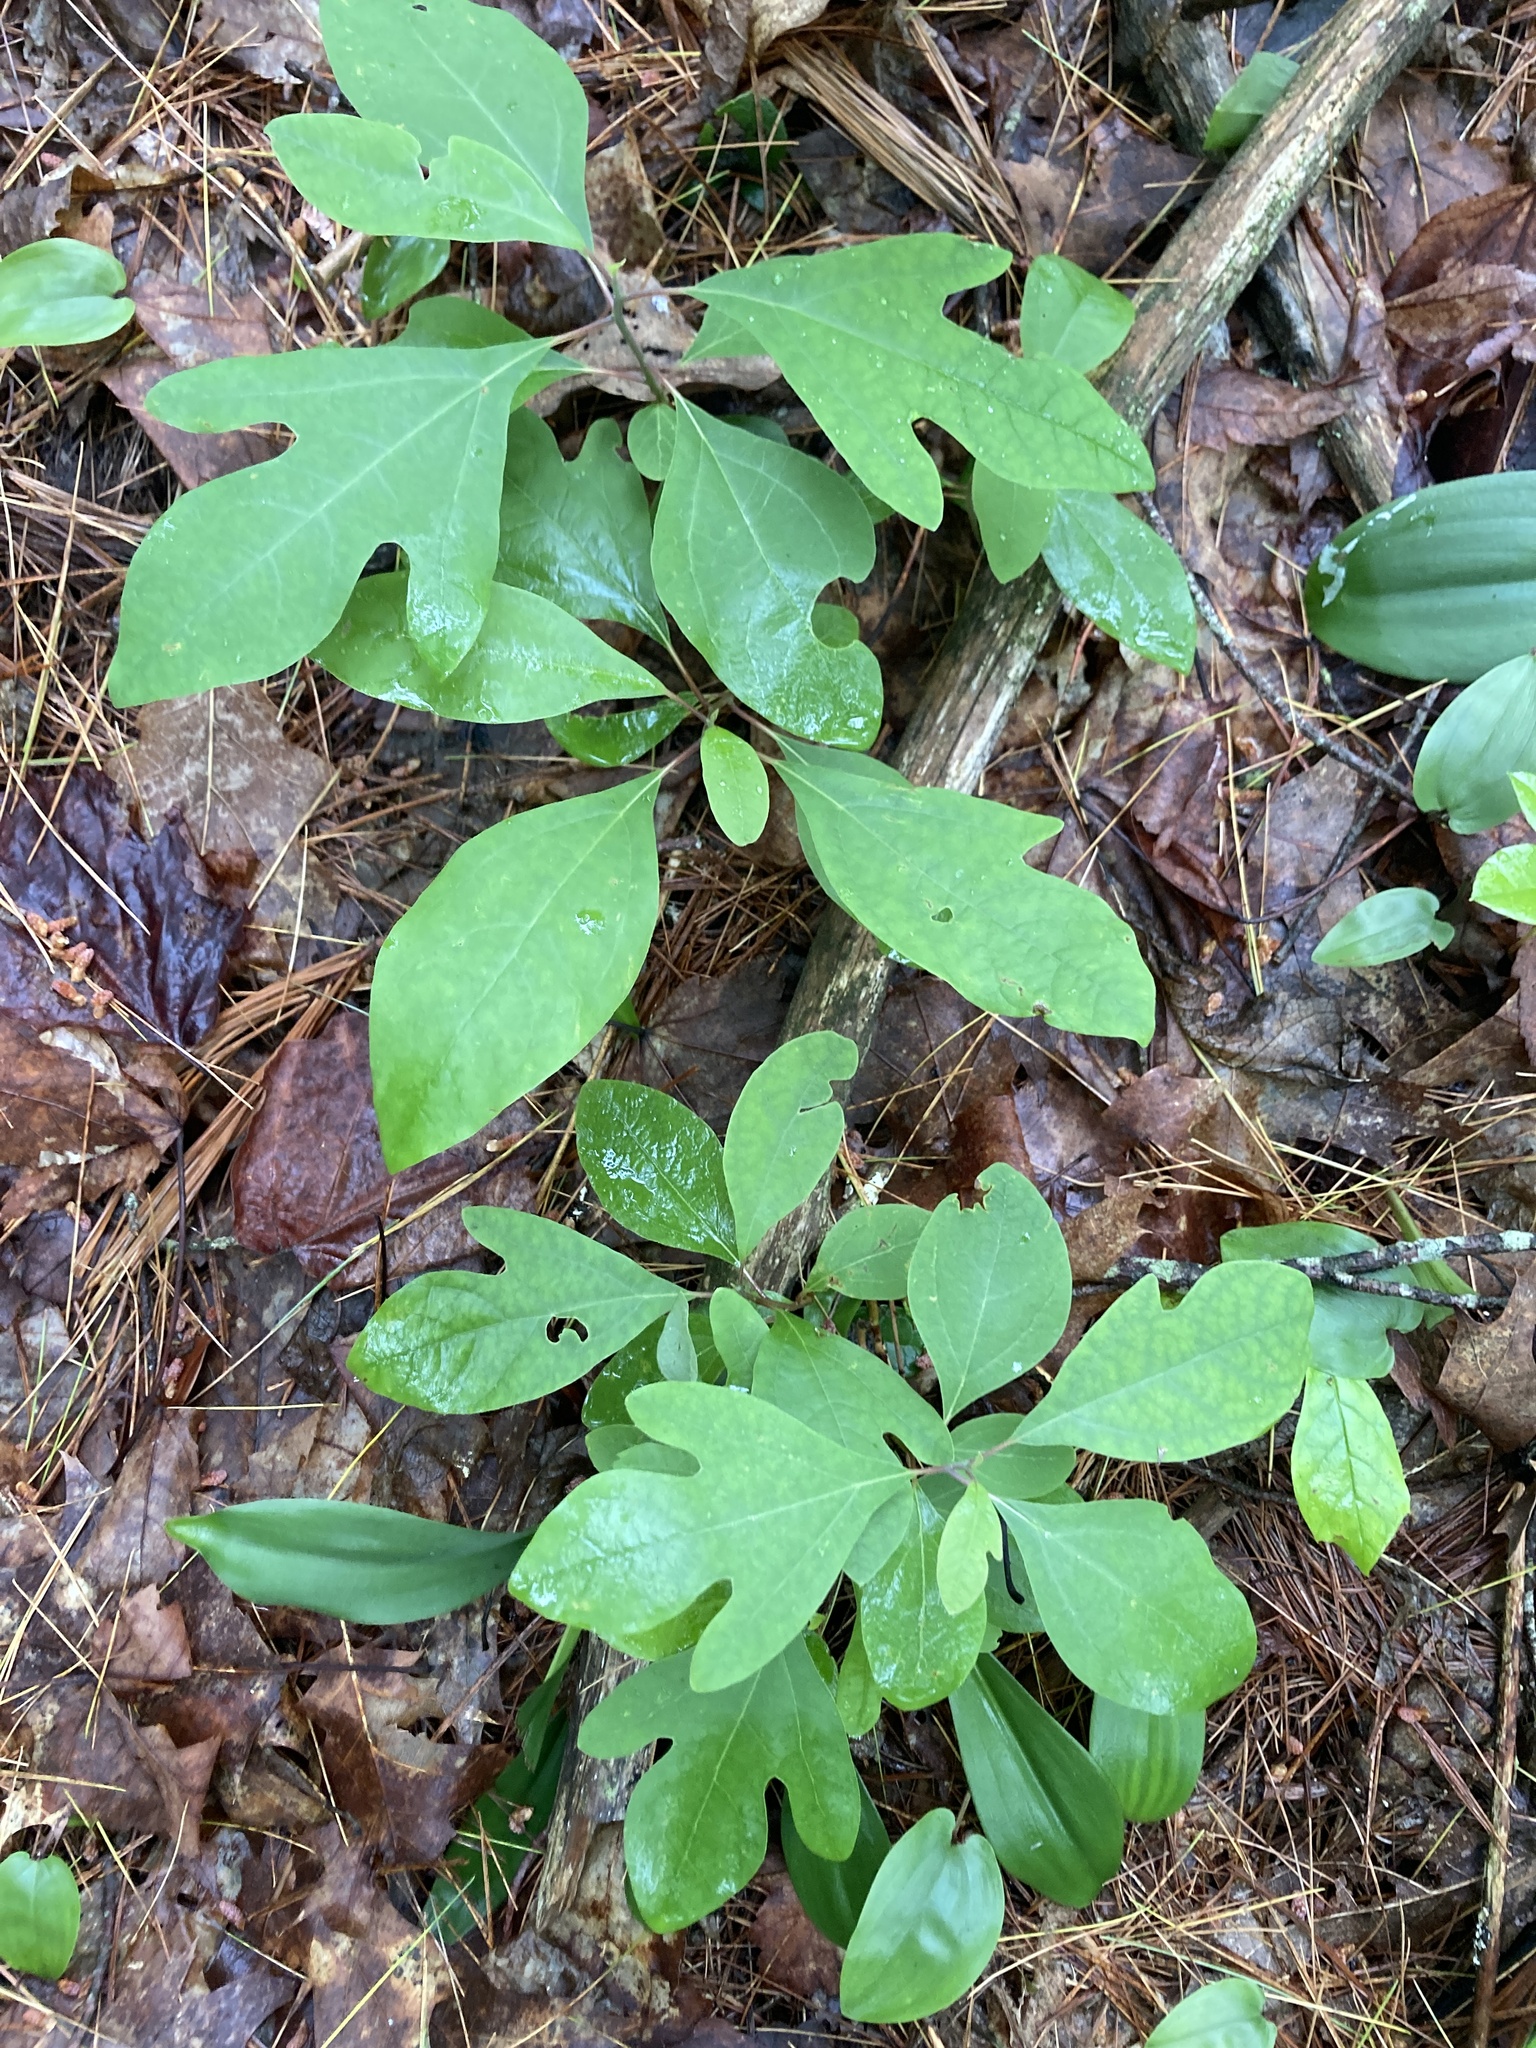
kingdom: Plantae
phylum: Tracheophyta
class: Magnoliopsida
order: Laurales
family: Lauraceae
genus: Sassafras
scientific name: Sassafras albidum
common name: Sassafras
